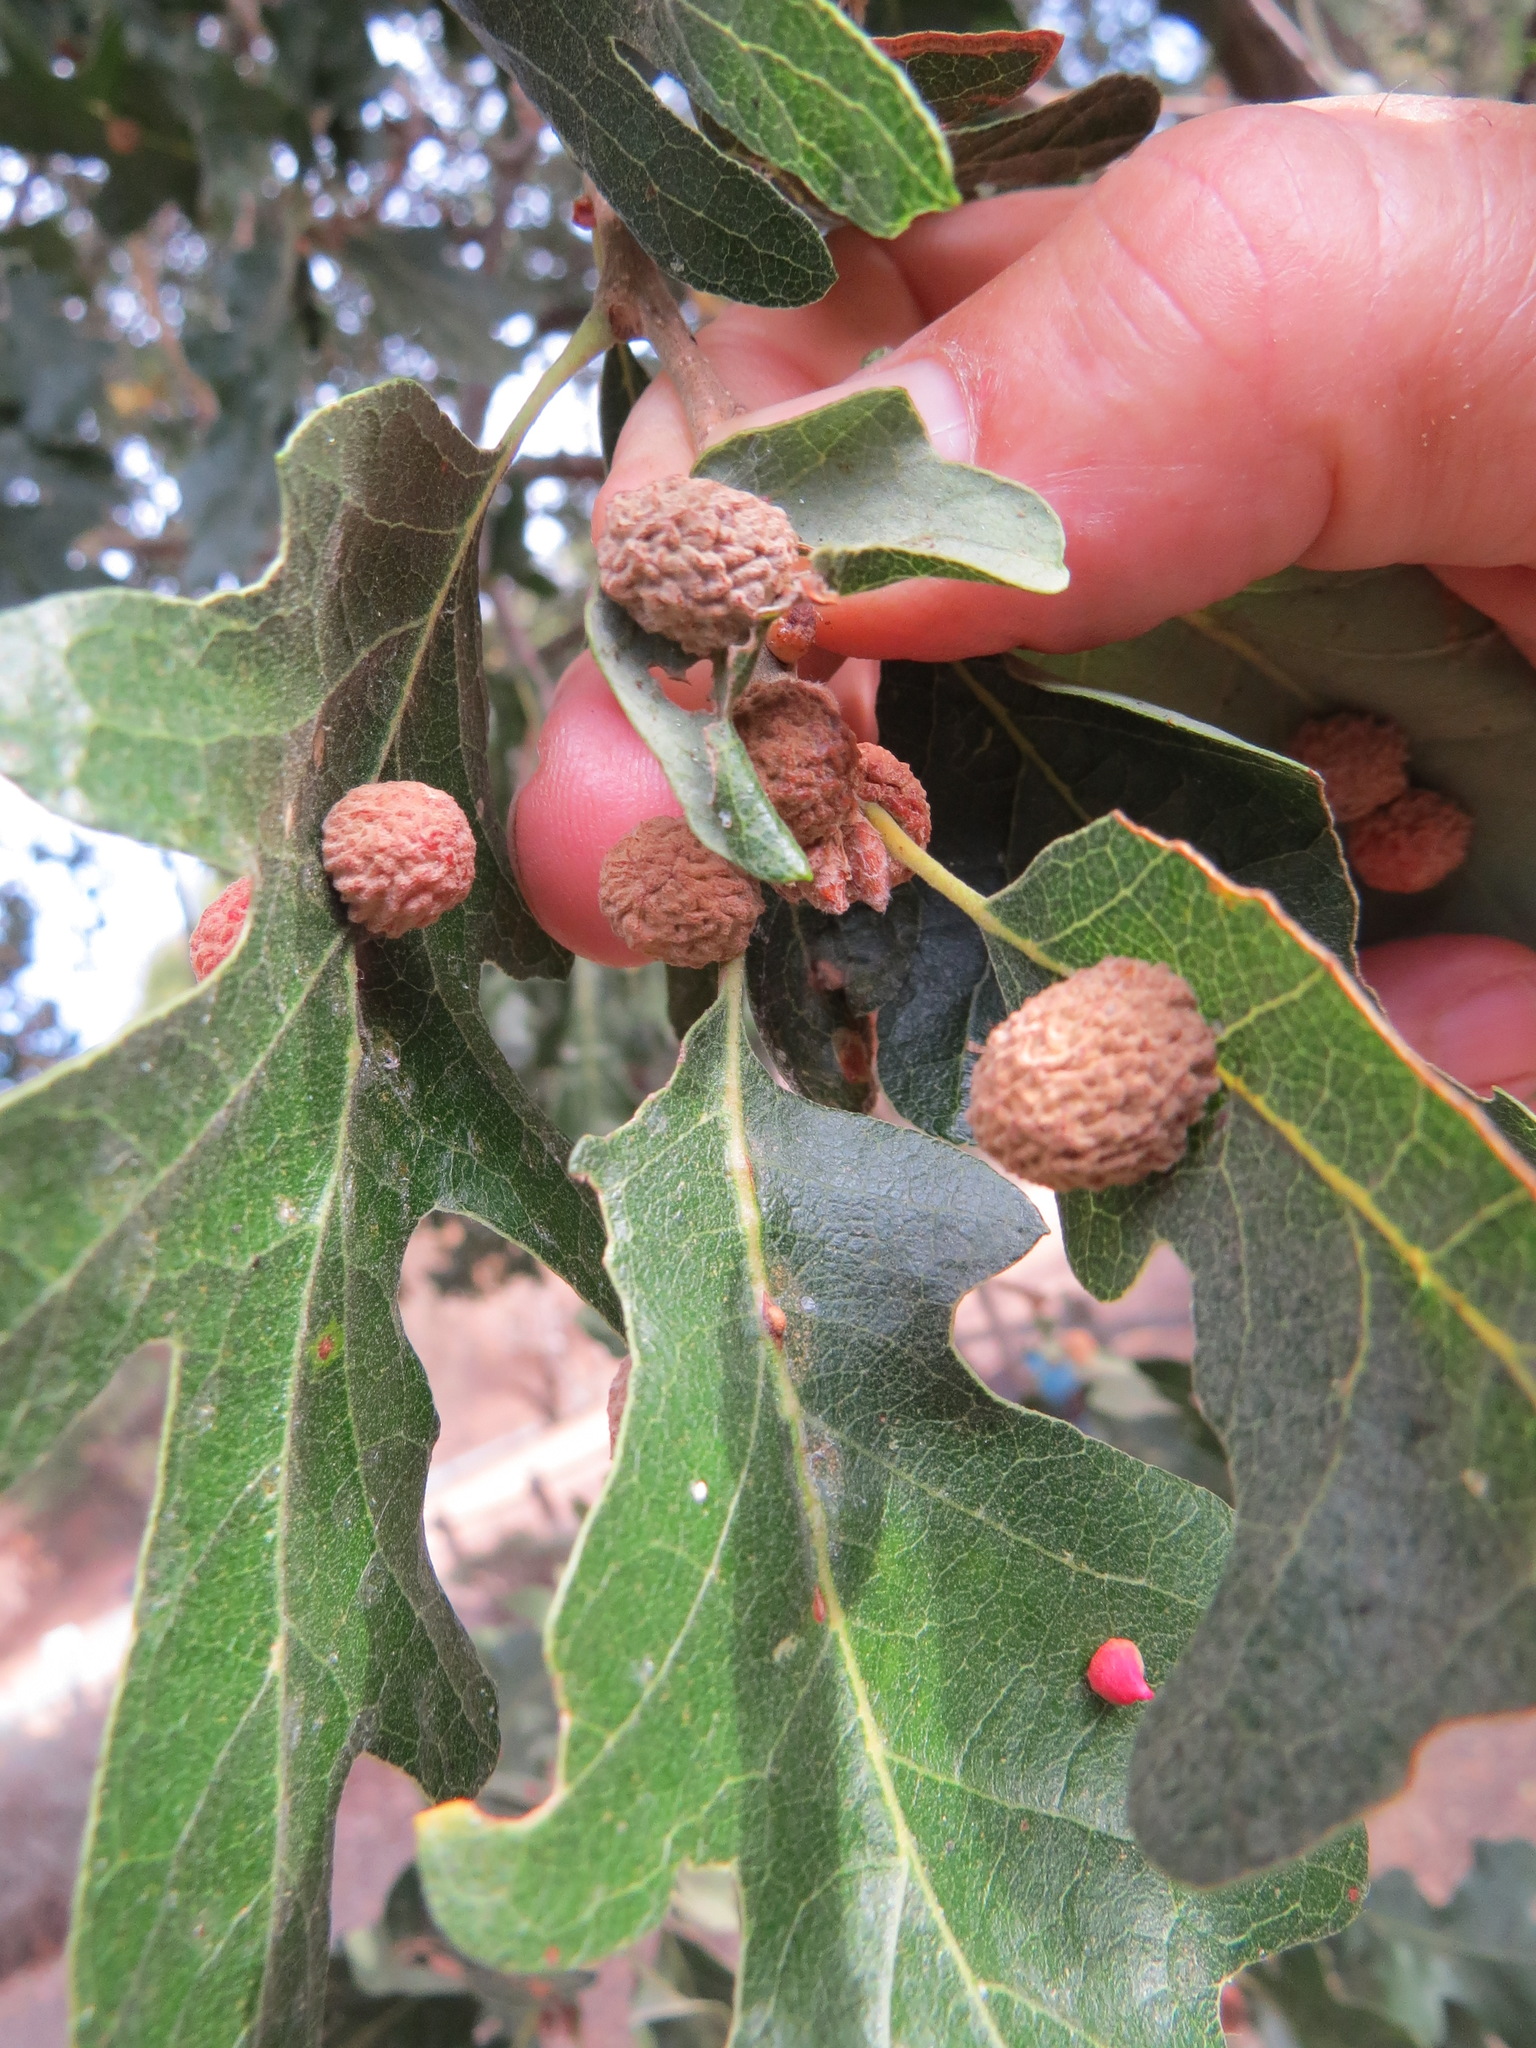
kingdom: Animalia
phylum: Arthropoda
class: Insecta
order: Hymenoptera
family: Cynipidae
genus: Cynips
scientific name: Cynips conspicua
